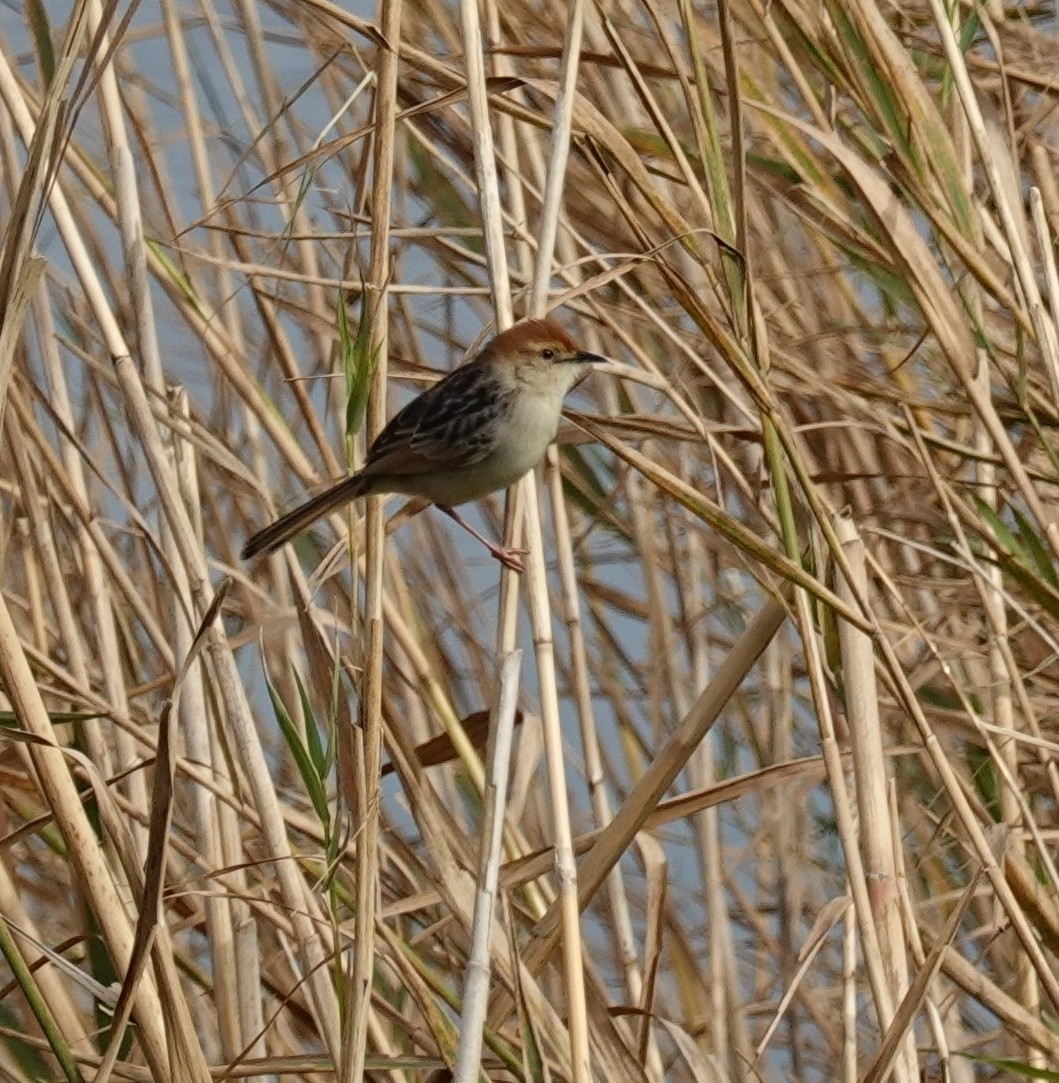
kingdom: Animalia
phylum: Chordata
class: Aves
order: Passeriformes
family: Cisticolidae
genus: Cisticola
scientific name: Cisticola tinniens
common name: Levaillant's cisticola
